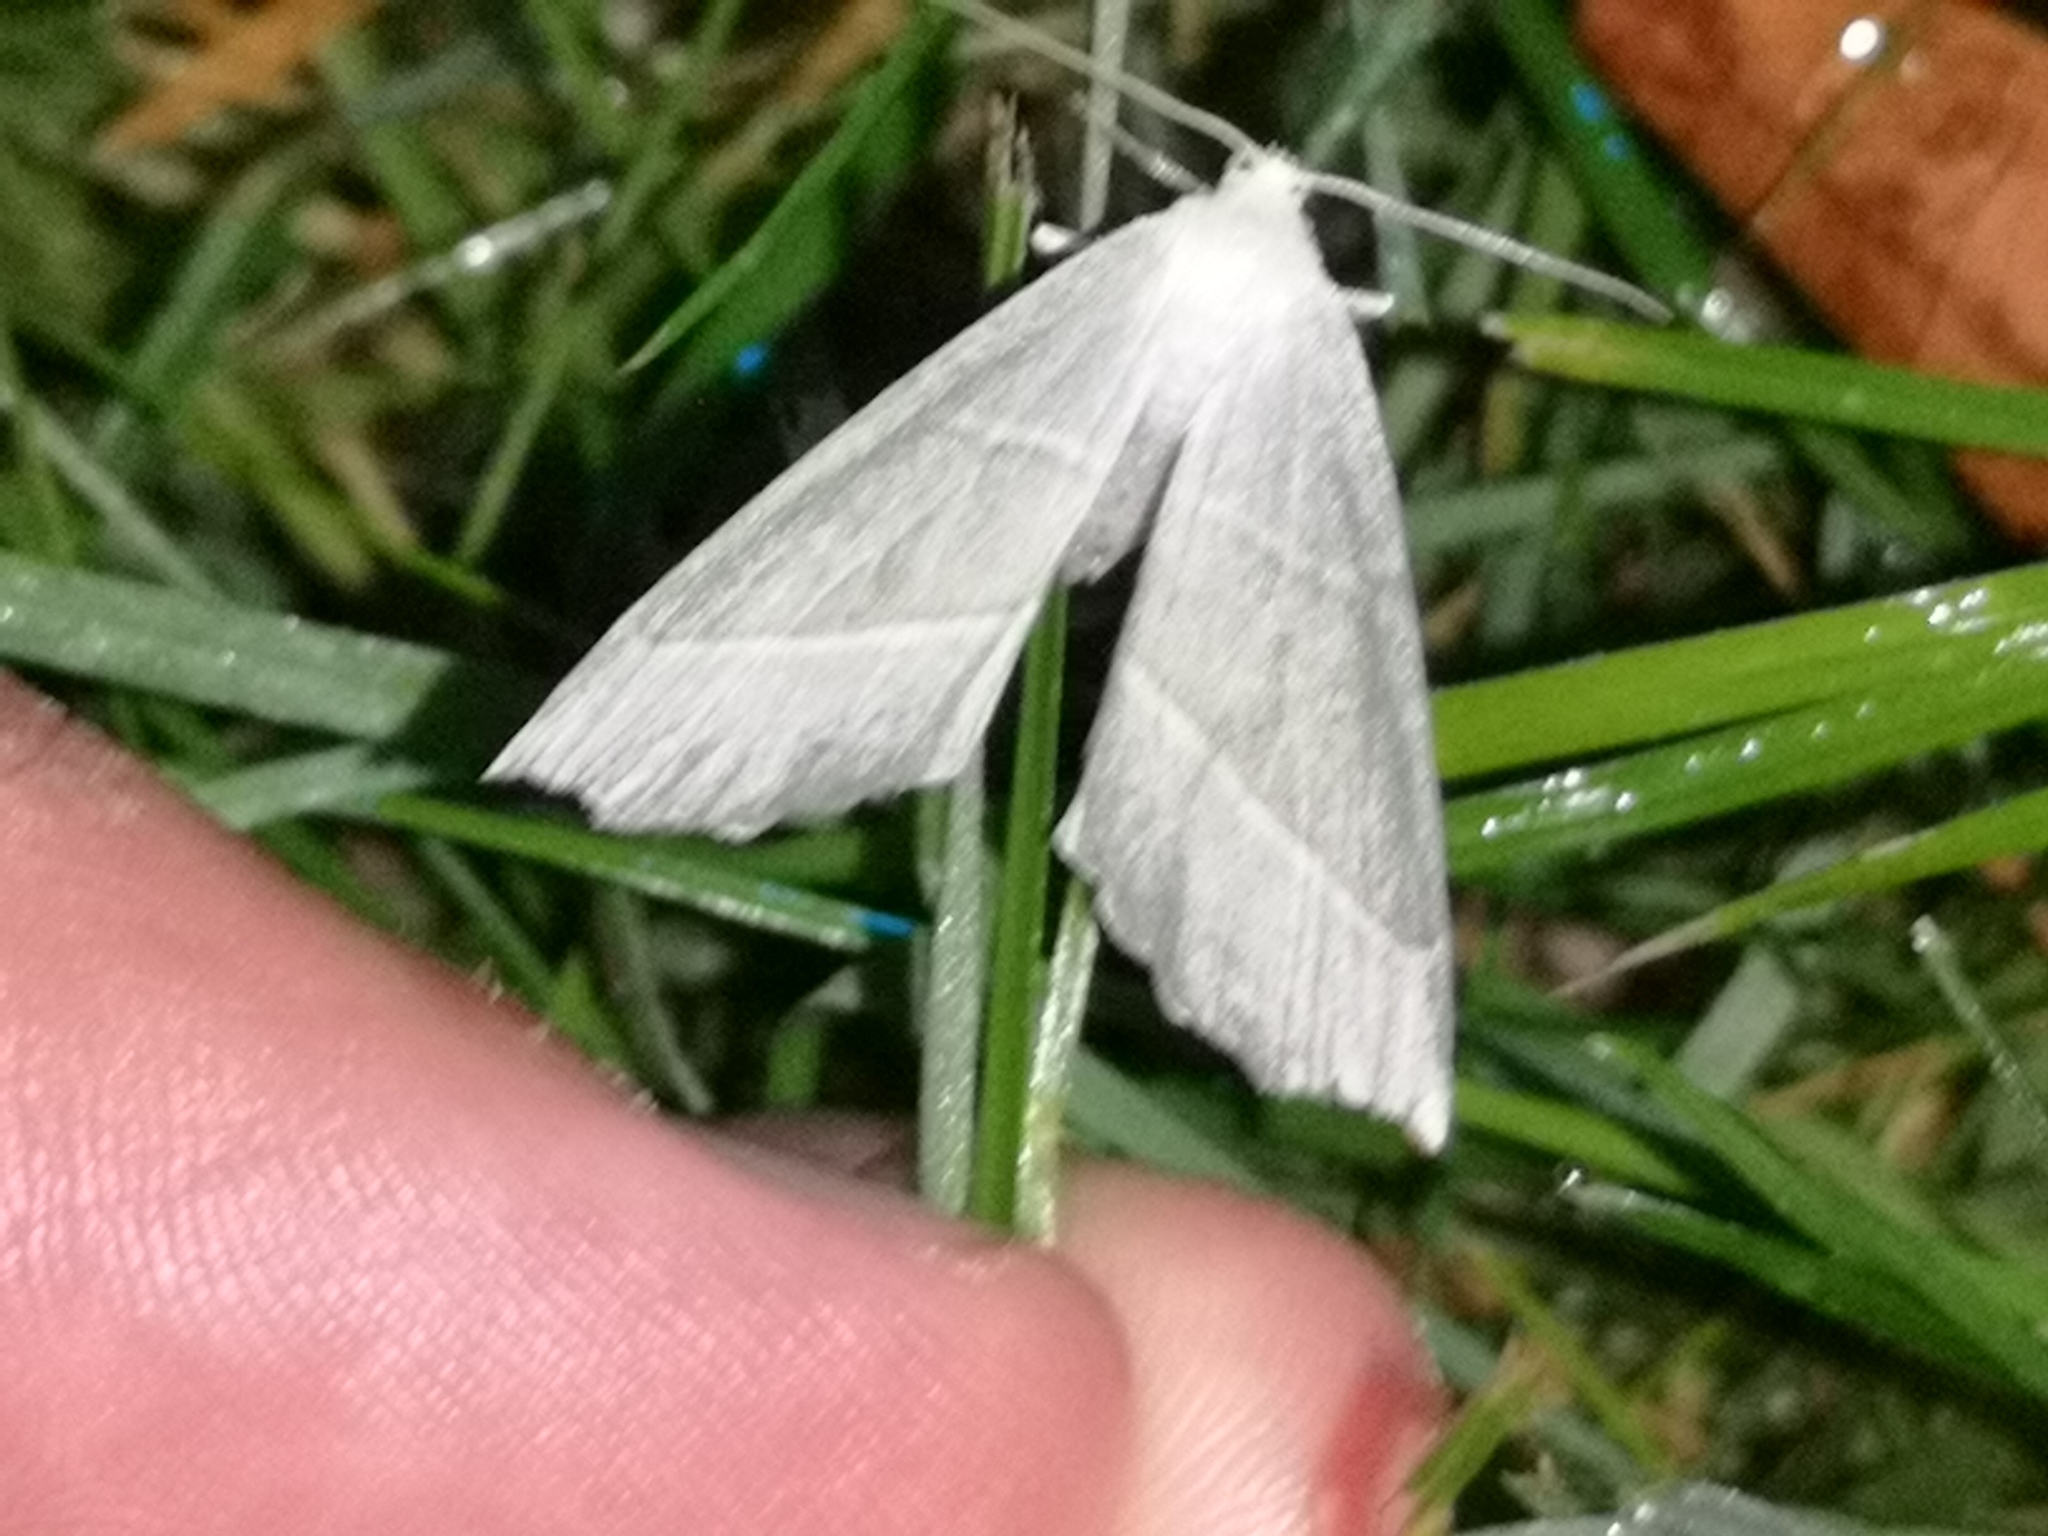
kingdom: Animalia
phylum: Arthropoda
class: Insecta
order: Lepidoptera
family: Geometridae
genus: Campaea
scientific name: Campaea margaritaria
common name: Light emerald
